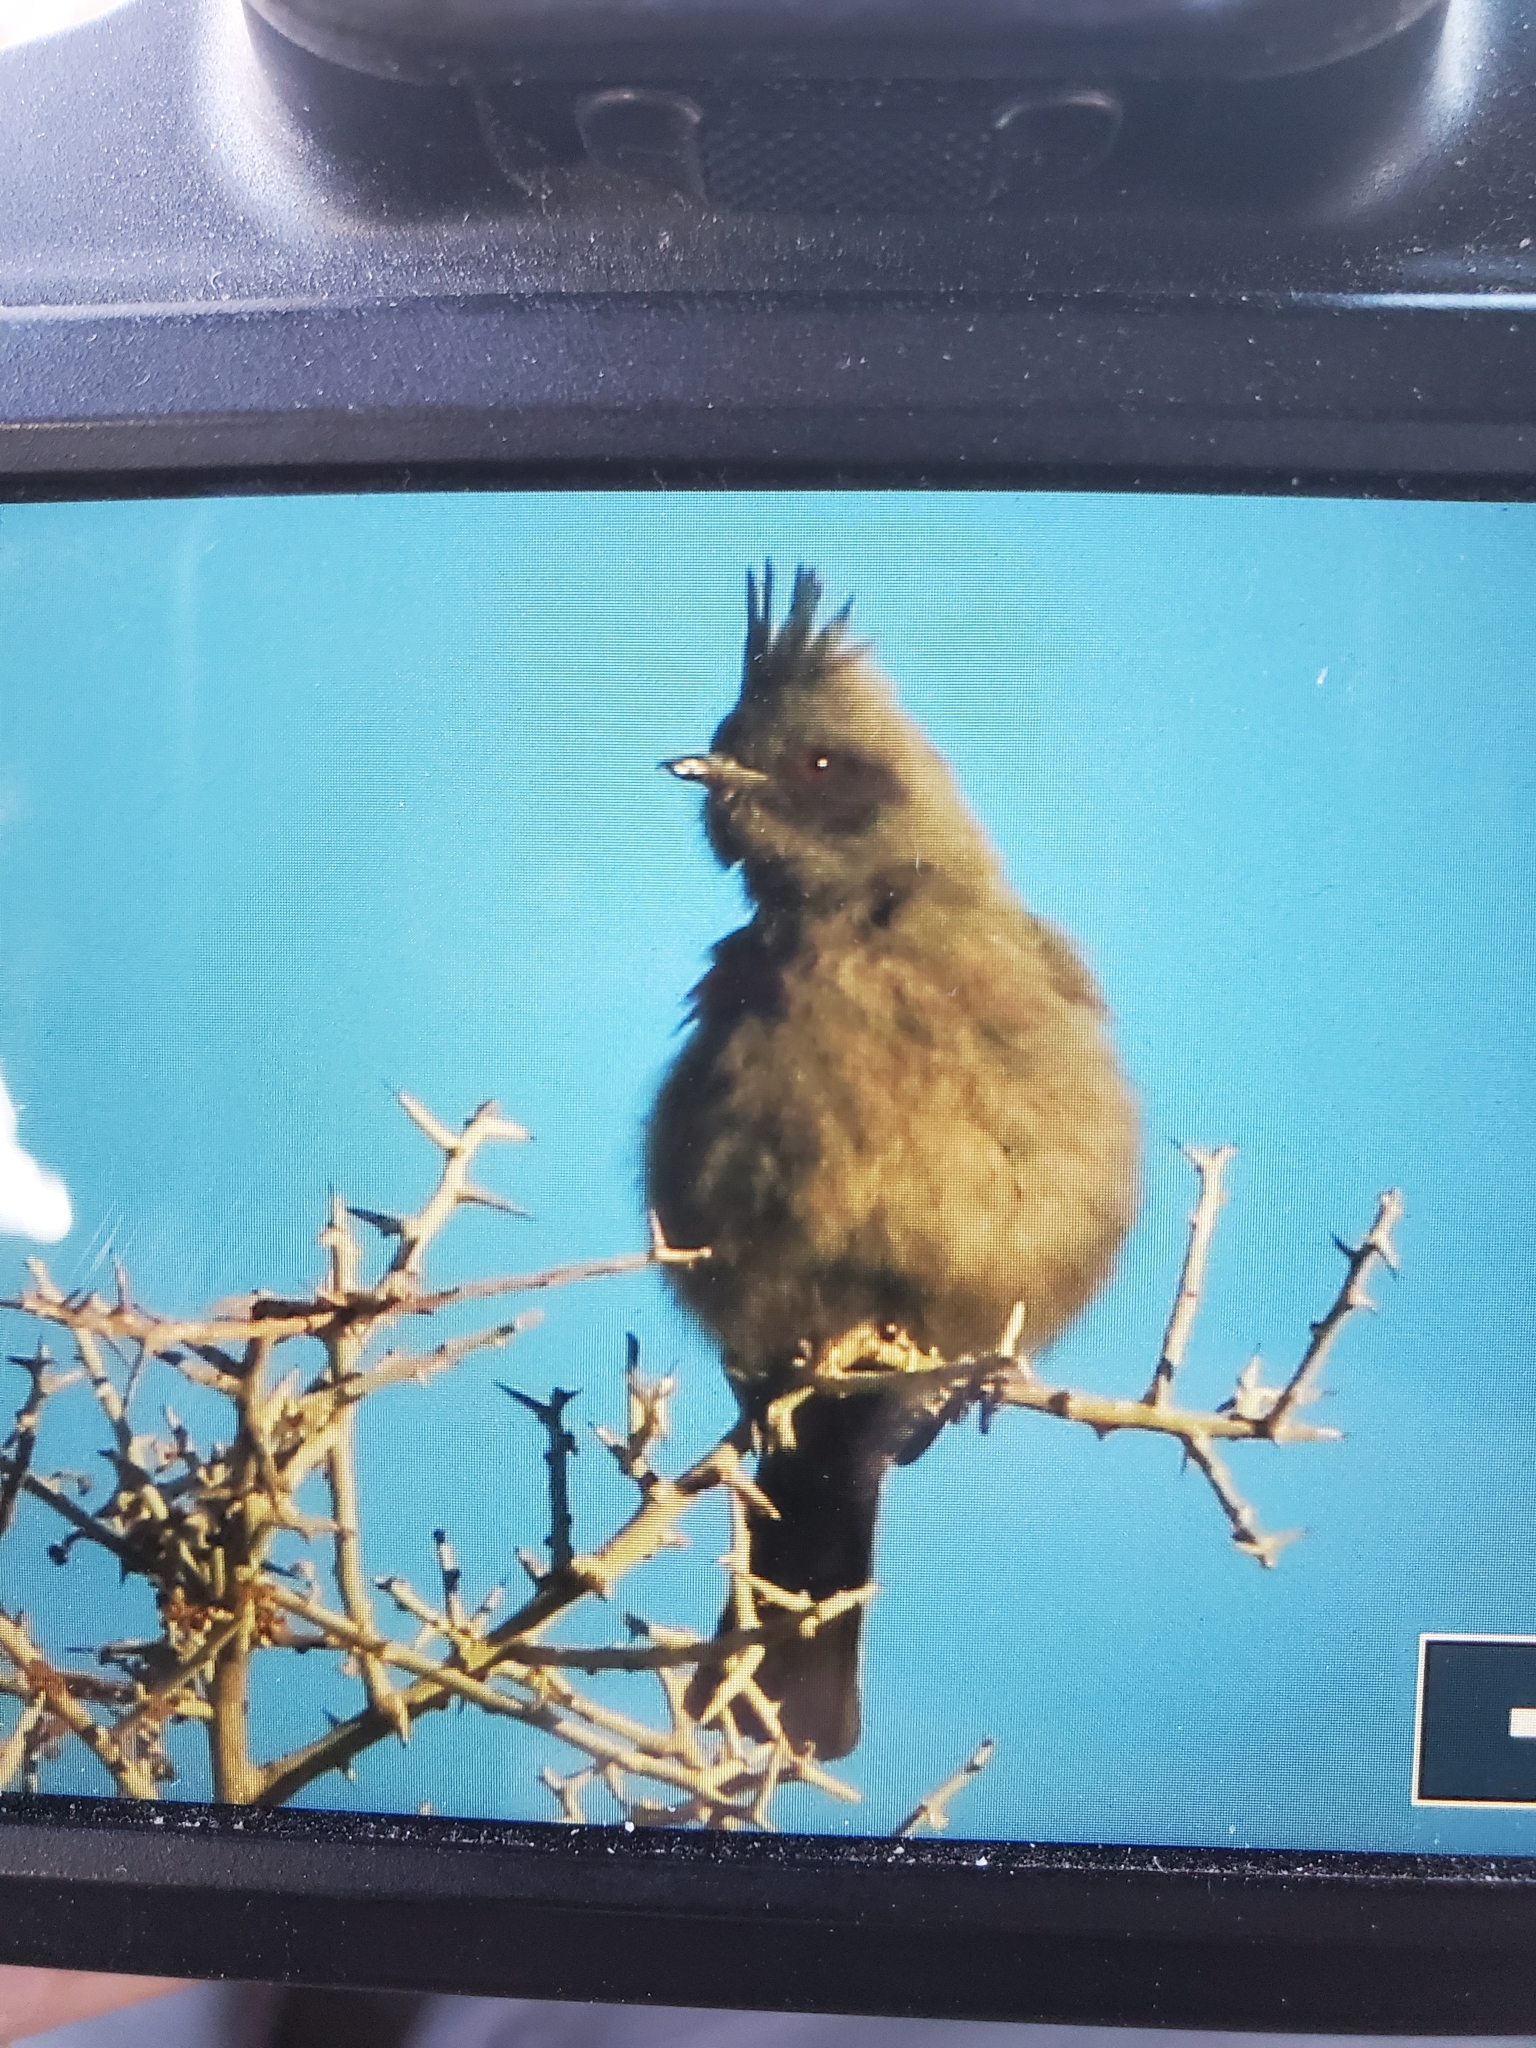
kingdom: Animalia
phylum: Chordata
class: Aves
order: Passeriformes
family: Ptilogonatidae
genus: Phainopepla
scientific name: Phainopepla nitens
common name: Phainopepla
